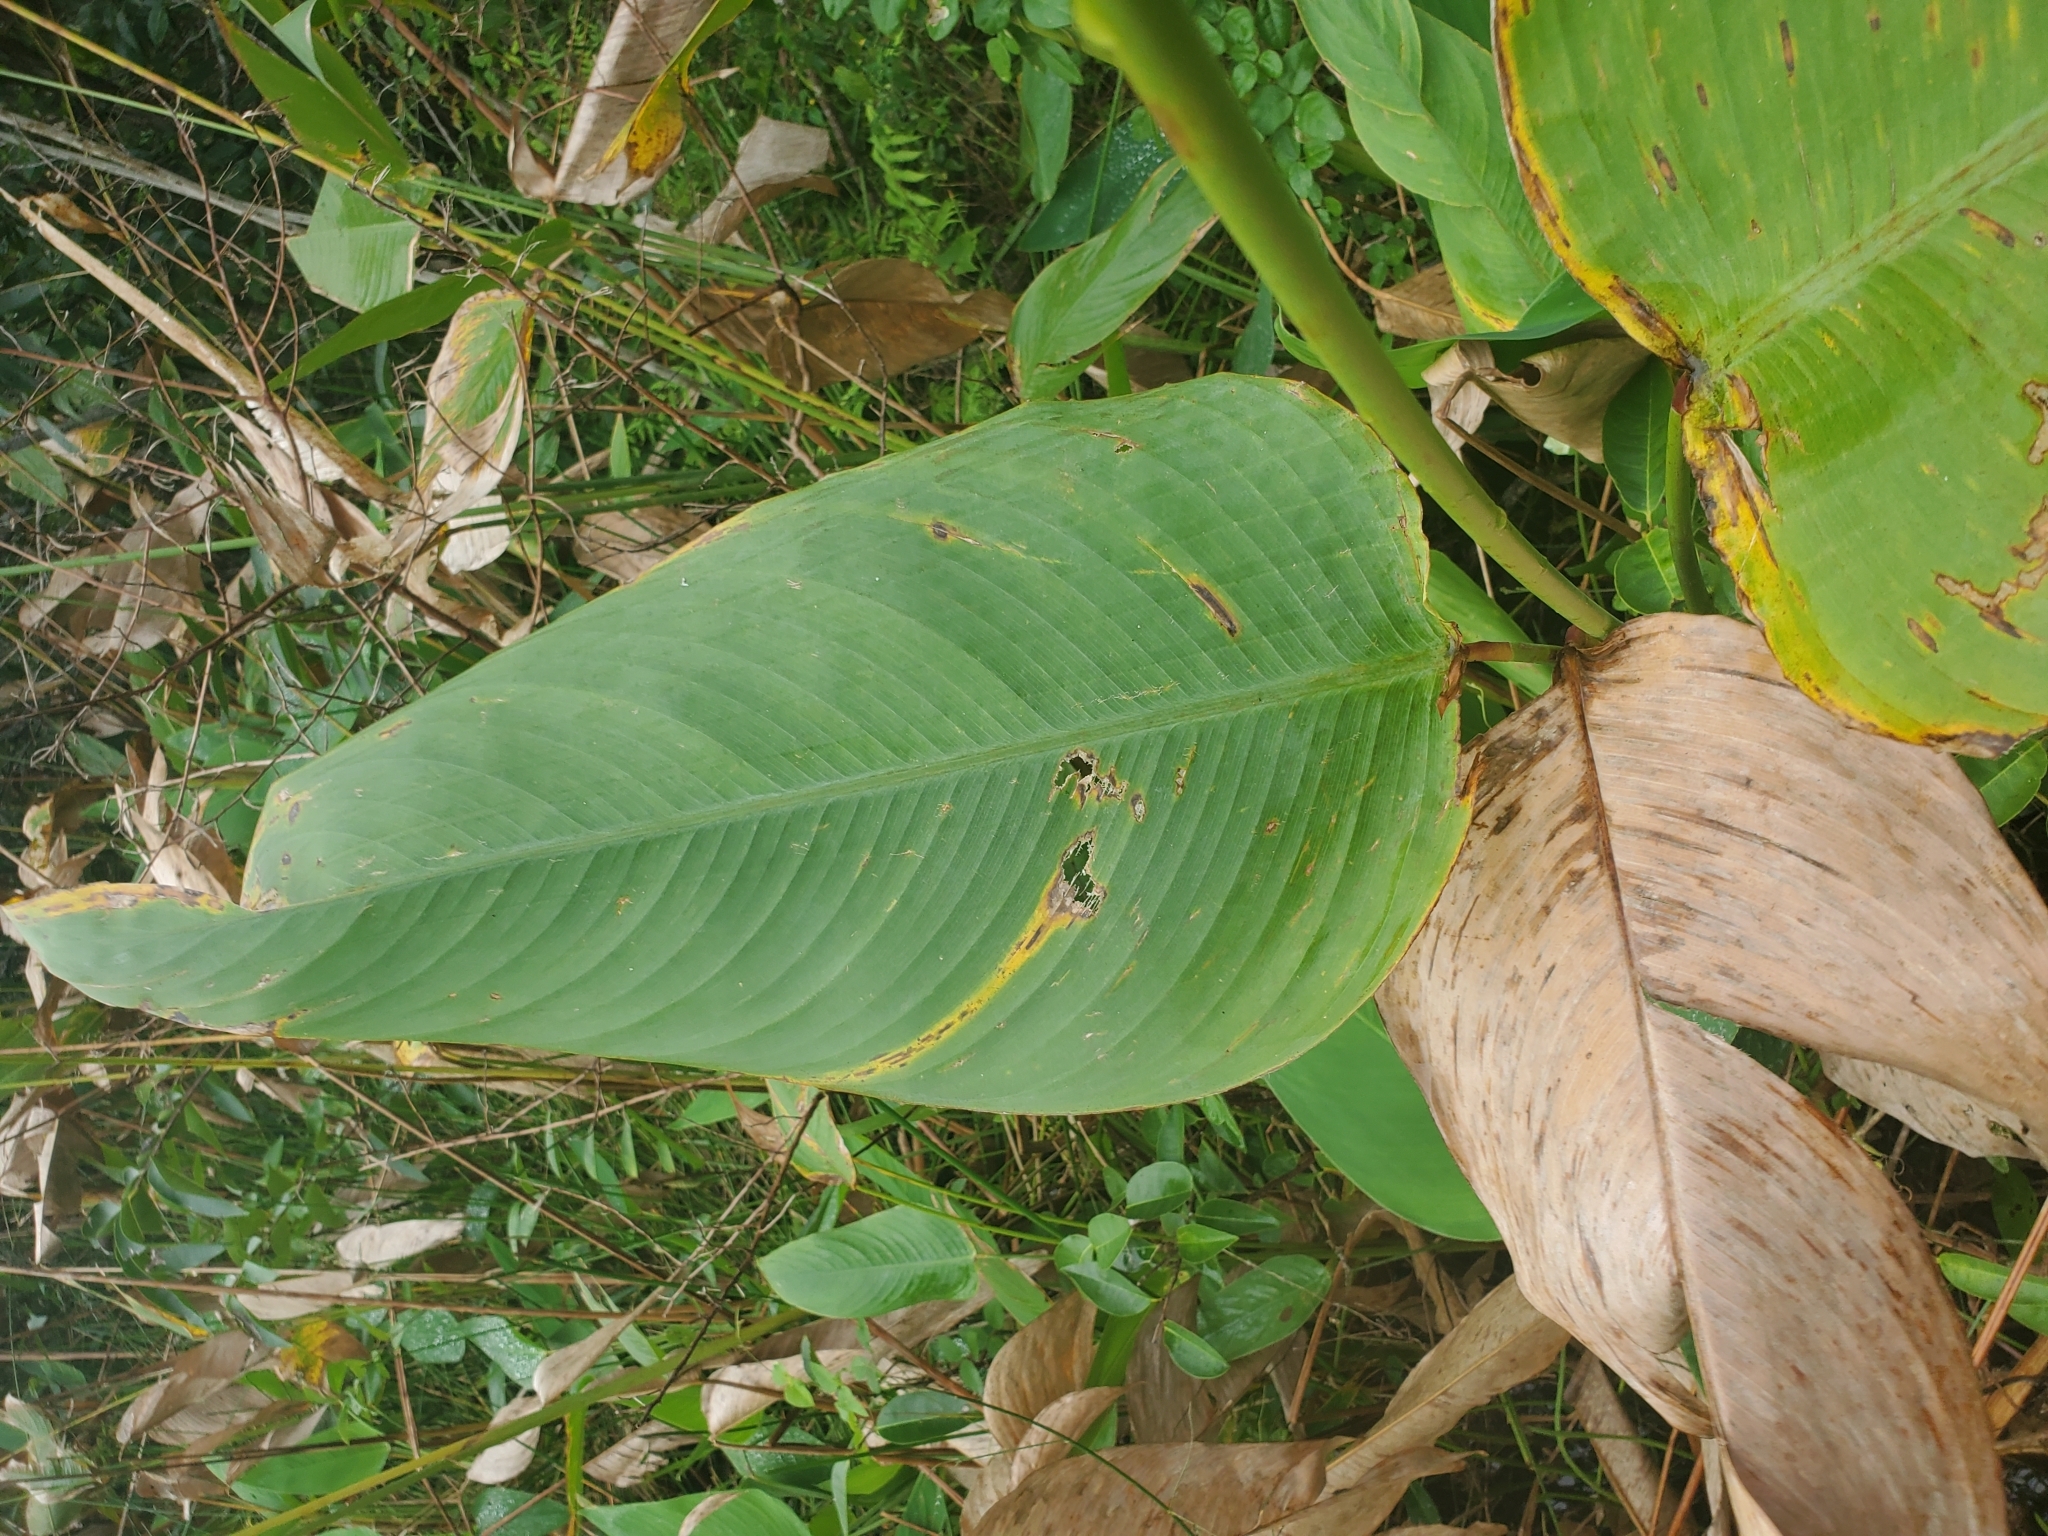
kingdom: Plantae
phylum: Tracheophyta
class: Liliopsida
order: Zingiberales
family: Marantaceae
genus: Thalia
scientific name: Thalia geniculata
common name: Arrowroot
